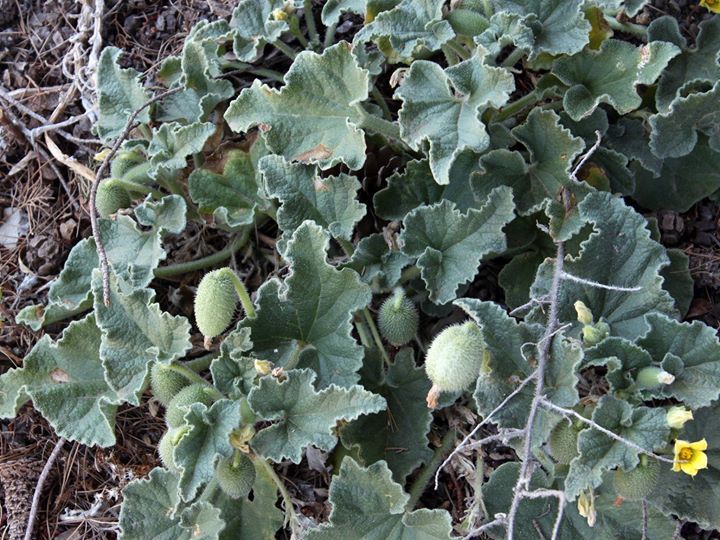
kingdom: Plantae
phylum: Tracheophyta
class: Magnoliopsida
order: Cucurbitales
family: Cucurbitaceae
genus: Ecballium
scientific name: Ecballium elaterium
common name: Squirting cucumber
